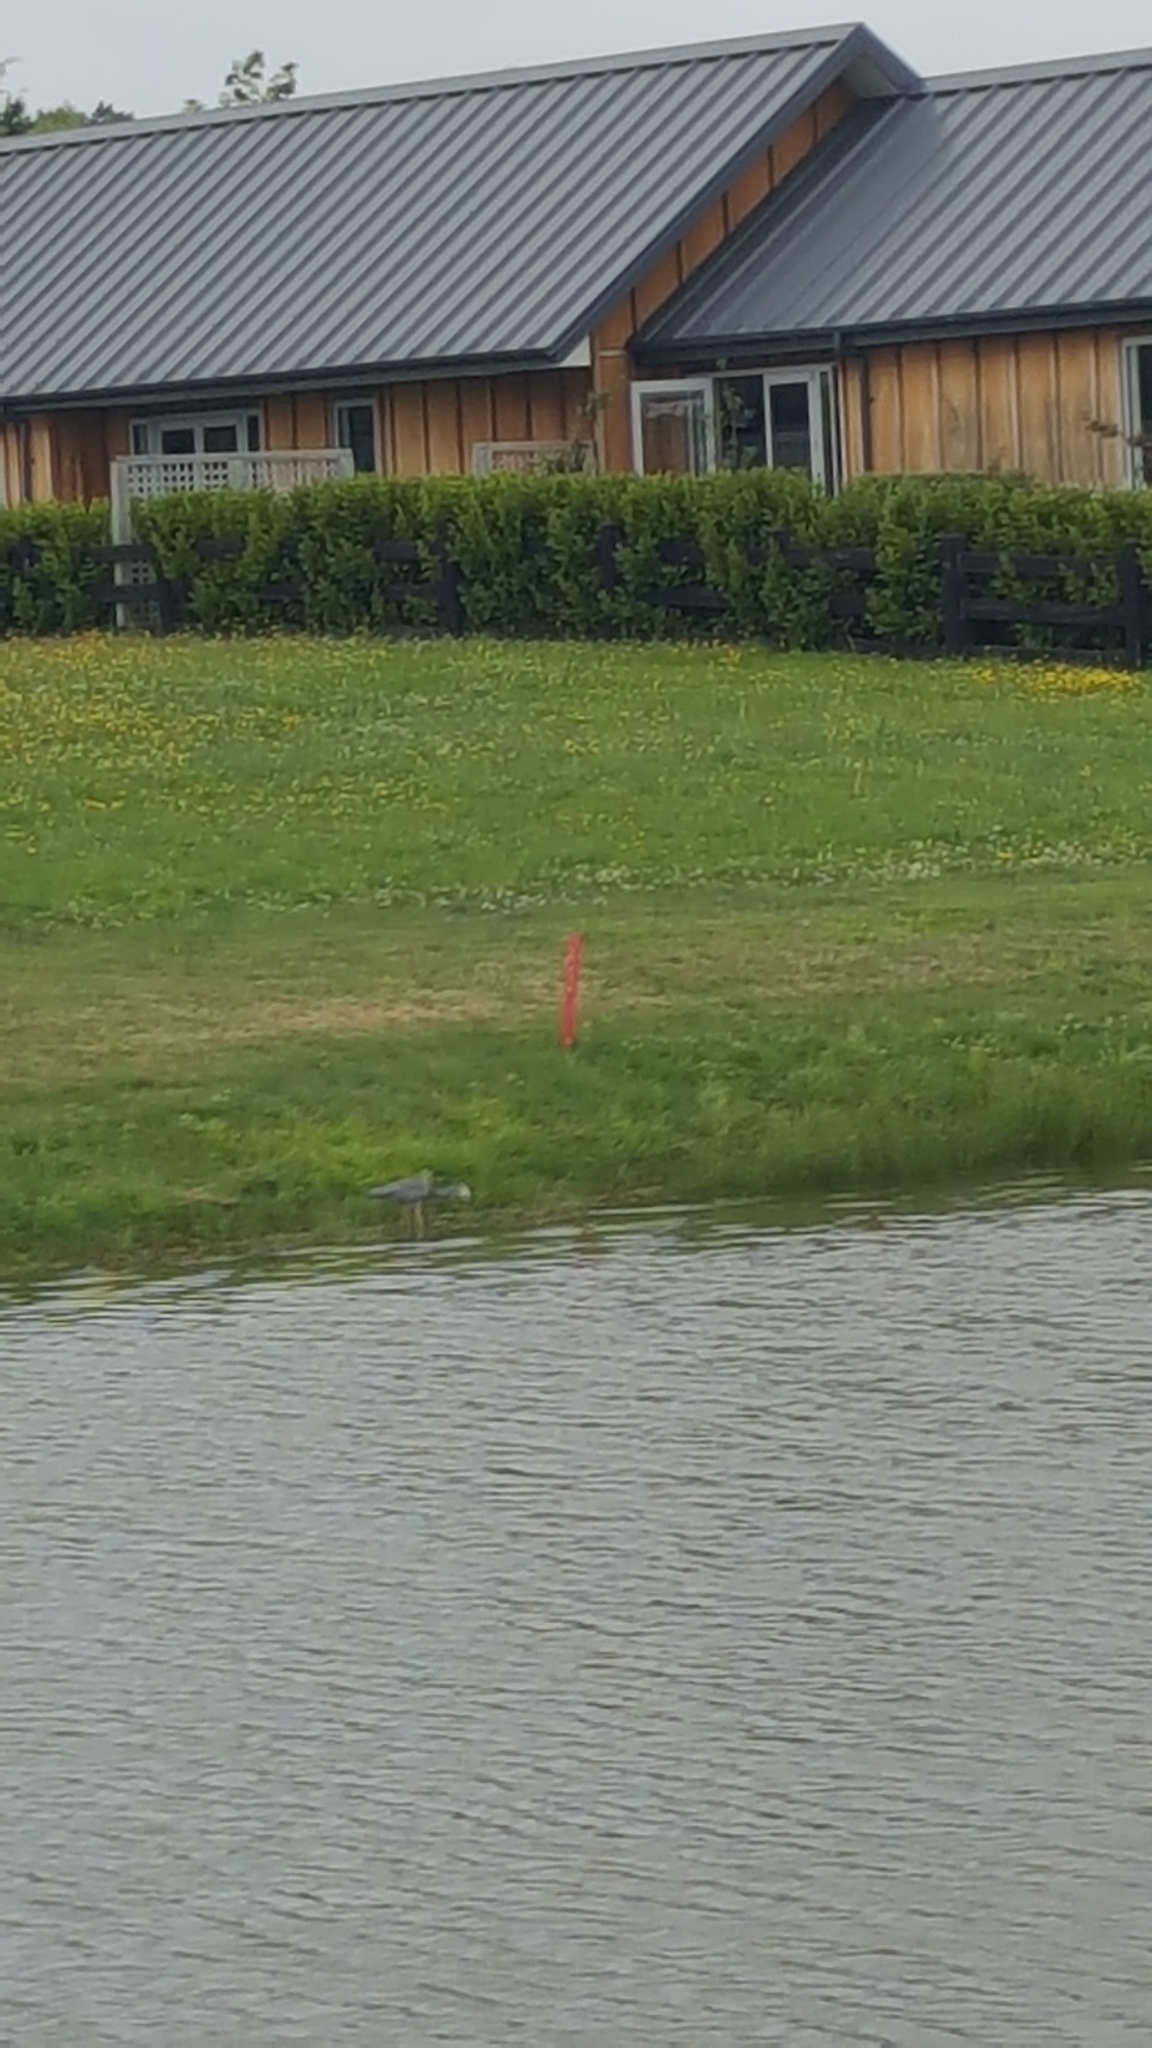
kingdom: Animalia
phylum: Chordata
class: Aves
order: Pelecaniformes
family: Ardeidae
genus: Egretta
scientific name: Egretta novaehollandiae
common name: White-faced heron
